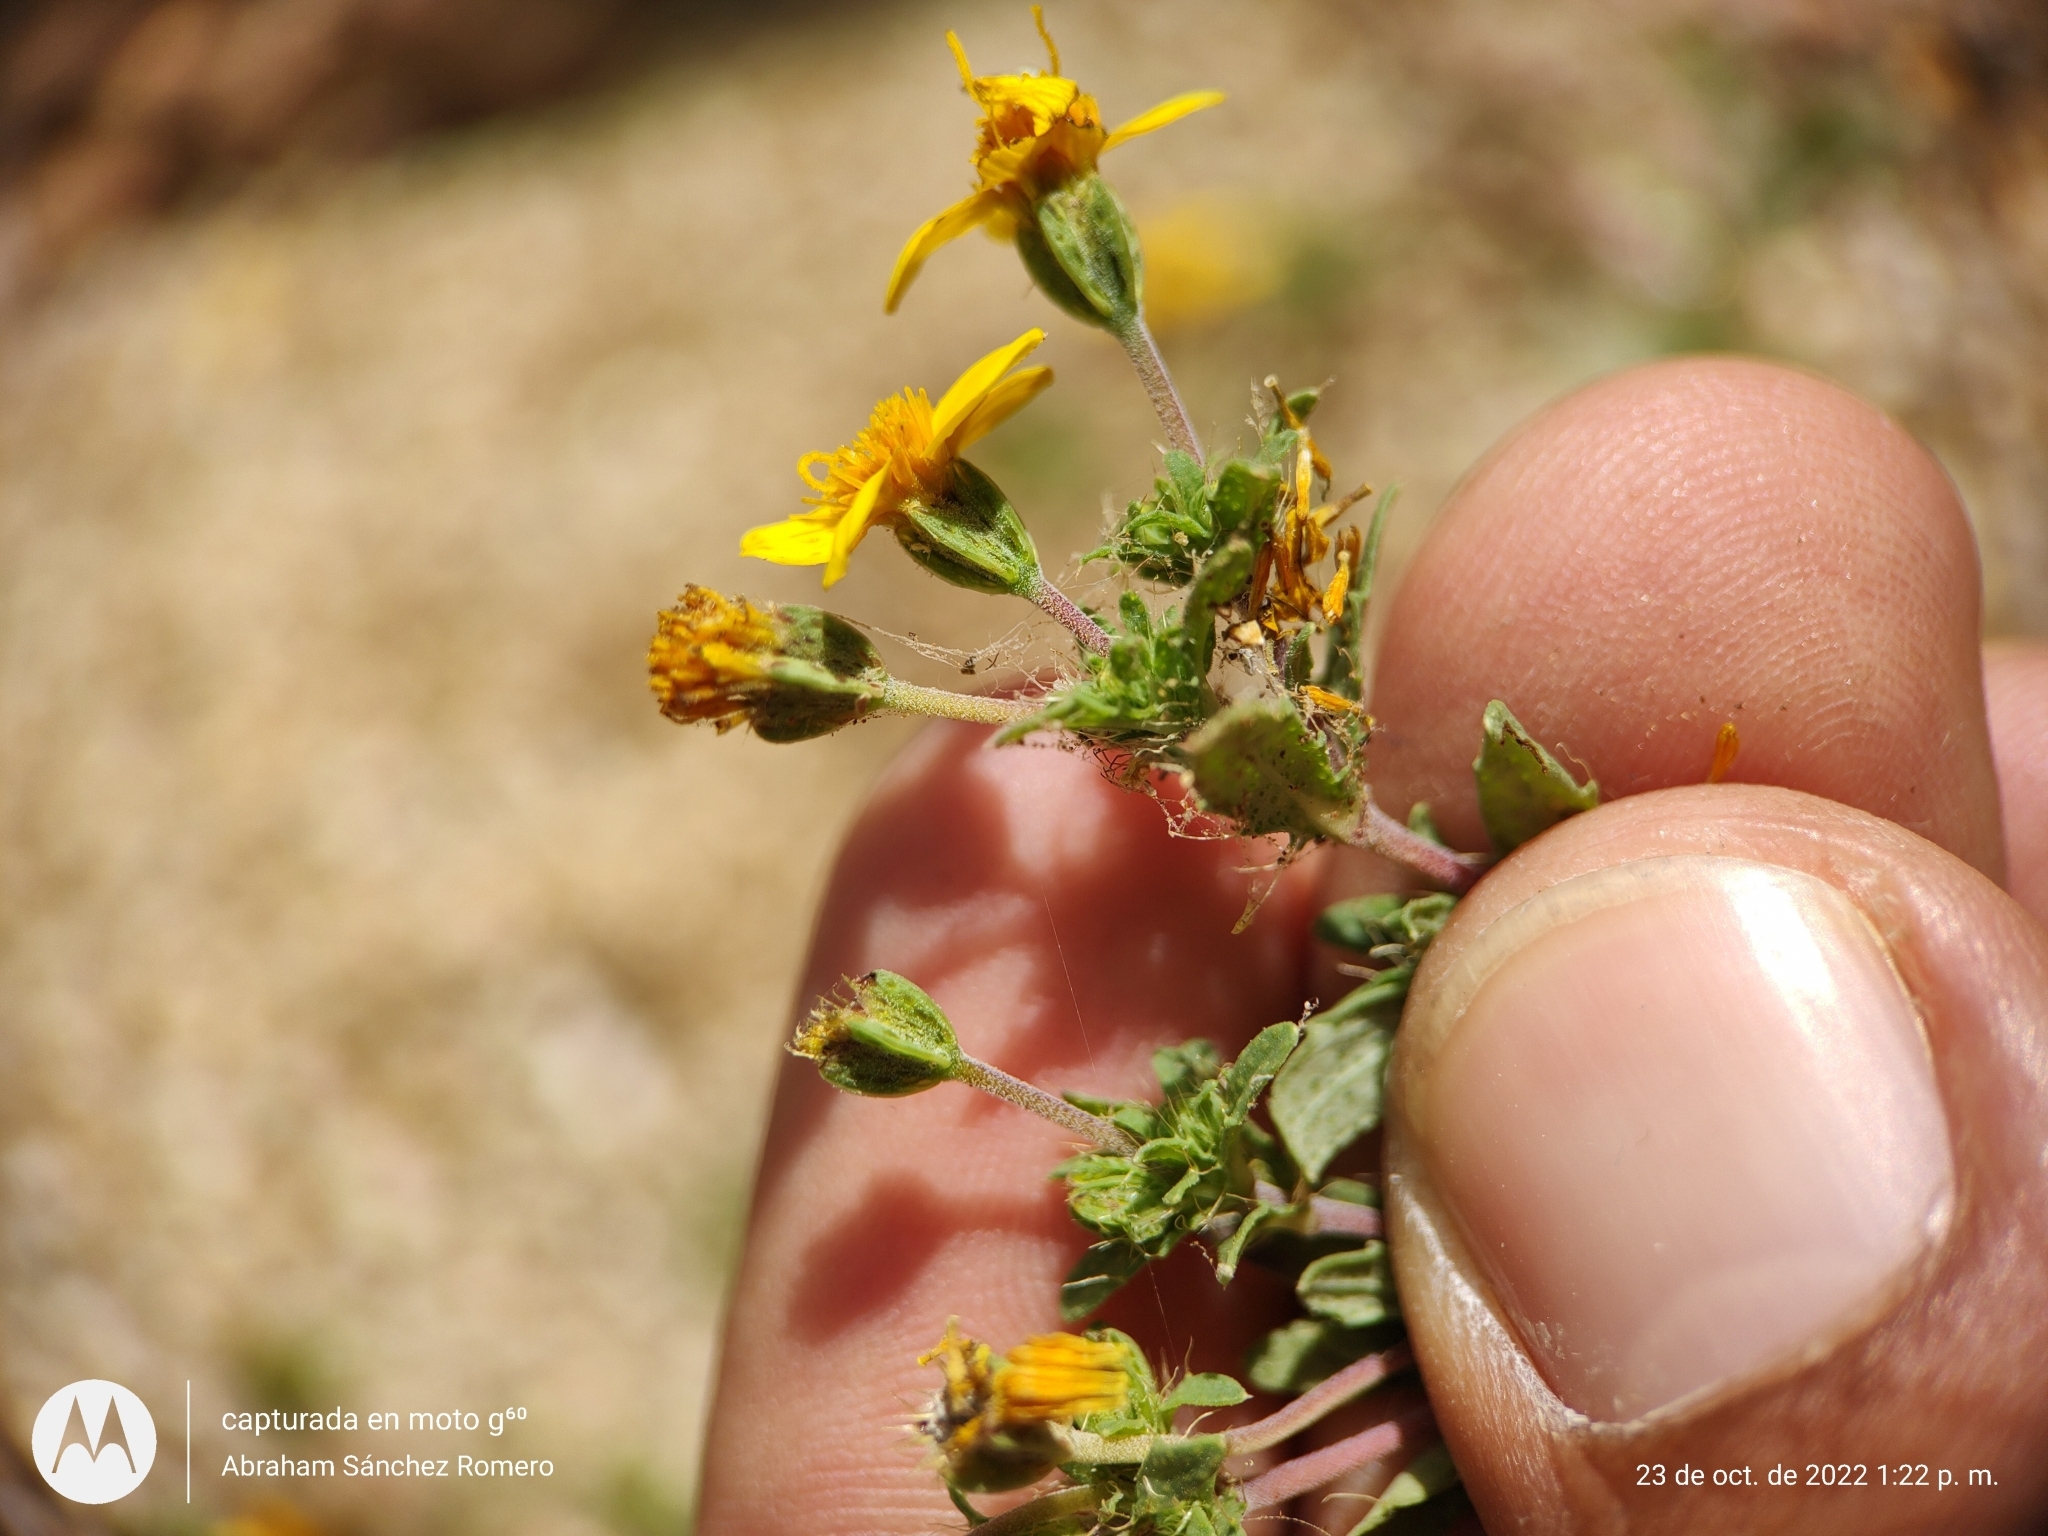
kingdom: Plantae
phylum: Tracheophyta
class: Magnoliopsida
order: Asterales
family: Asteraceae
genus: Pectis
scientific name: Pectis multiseta
